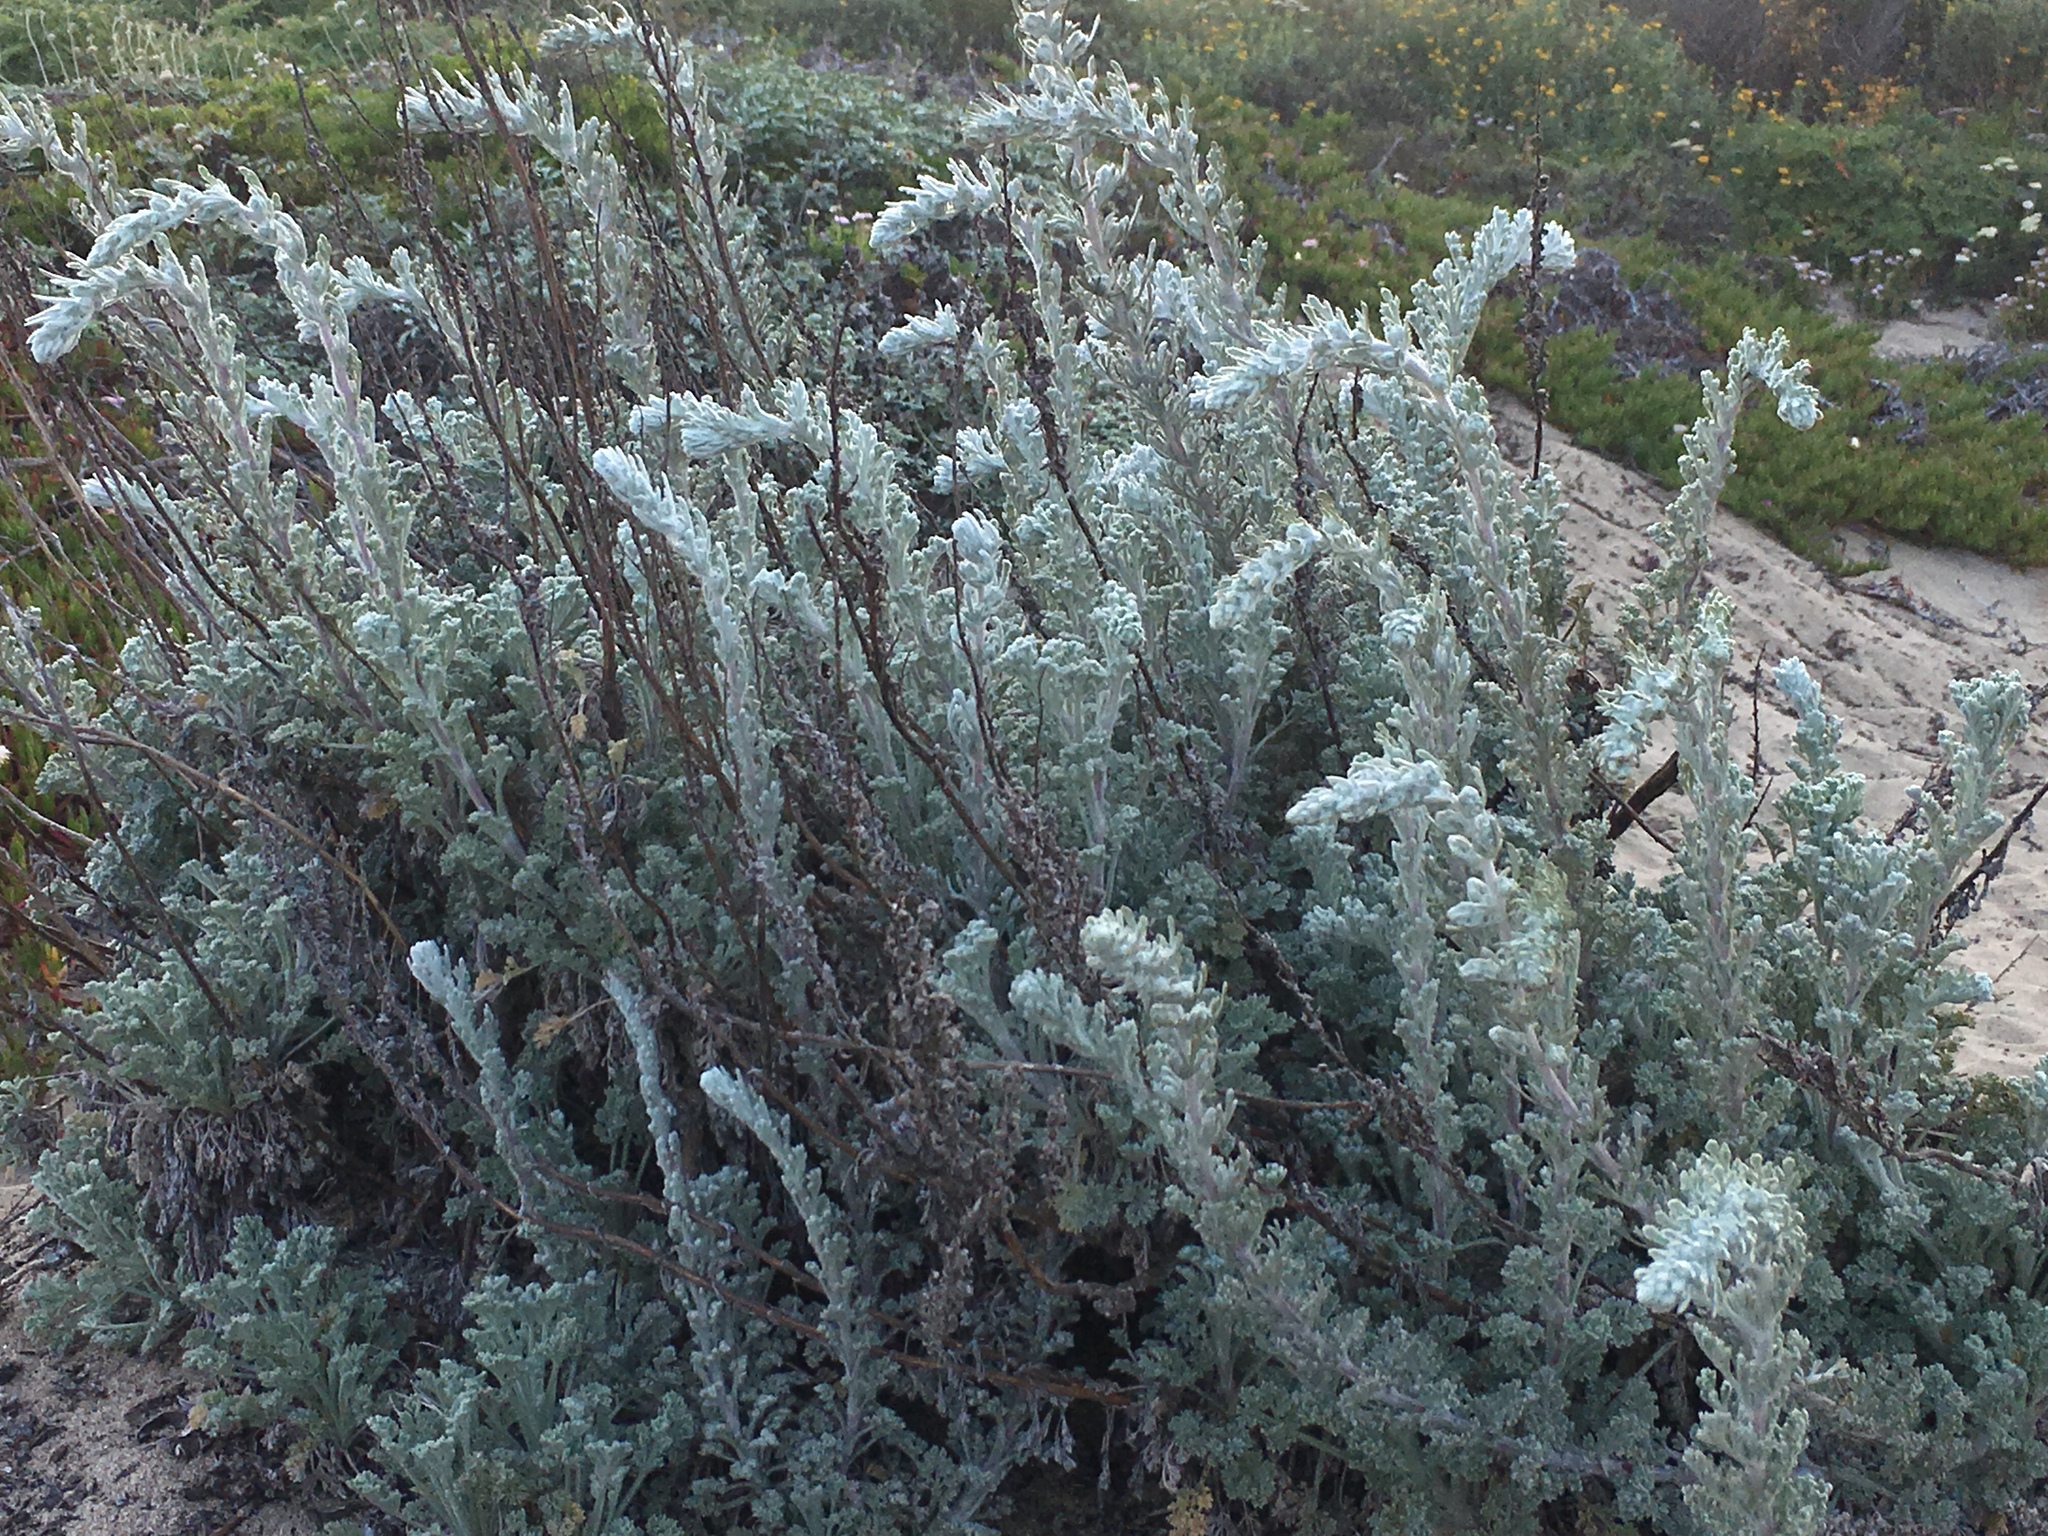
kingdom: Plantae
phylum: Tracheophyta
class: Magnoliopsida
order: Asterales
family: Asteraceae
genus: Artemisia
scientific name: Artemisia pycnocephala
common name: Coastal sagewort
